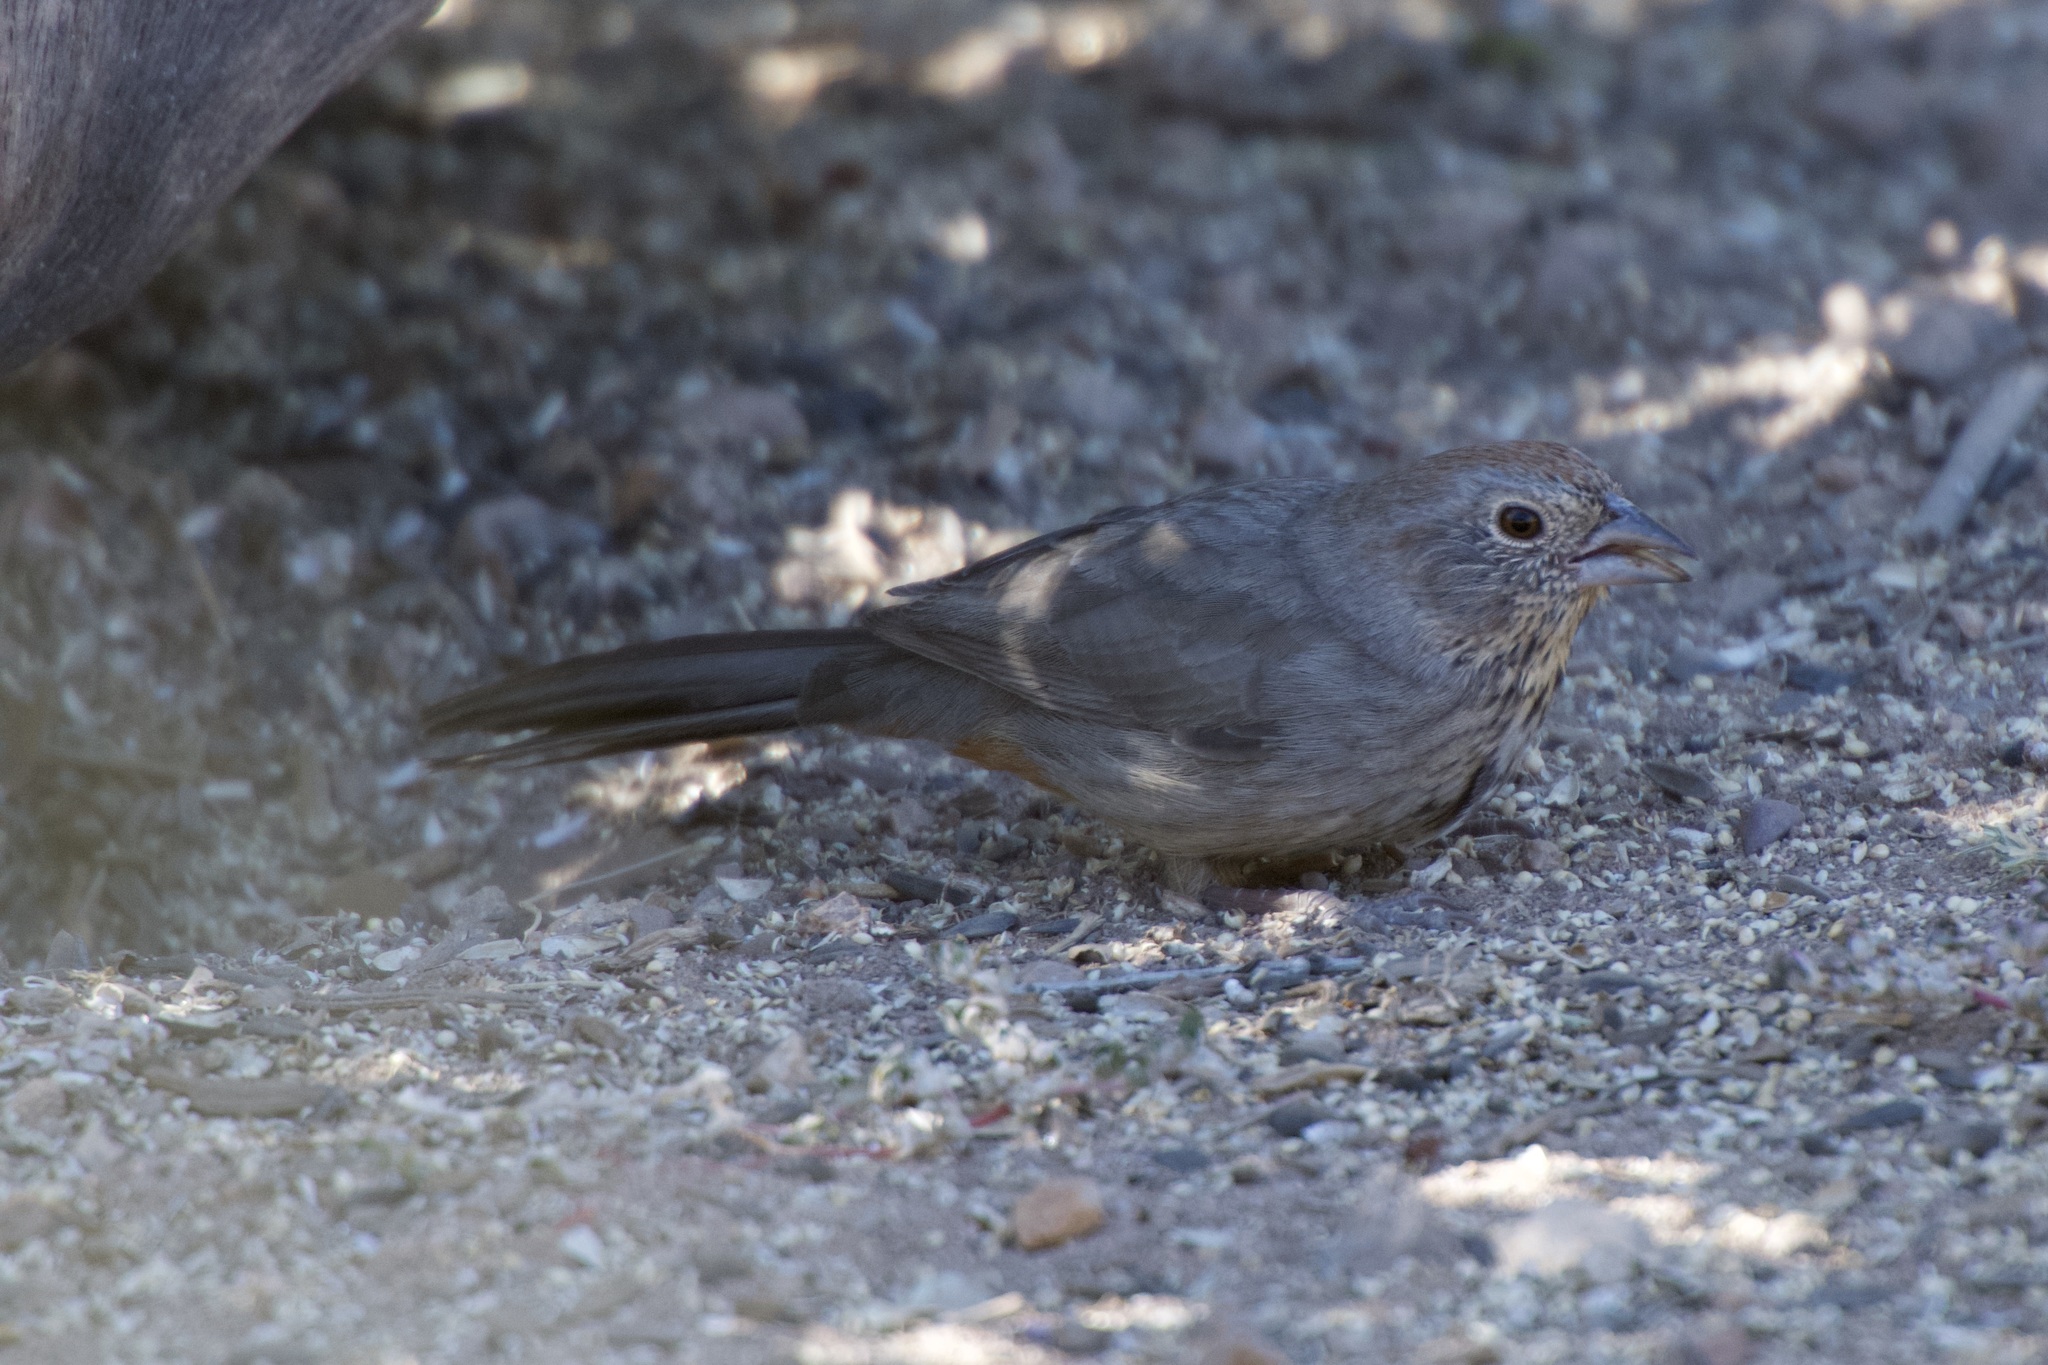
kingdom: Animalia
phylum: Chordata
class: Aves
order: Passeriformes
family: Passerellidae
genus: Melozone
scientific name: Melozone fusca
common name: Canyon towhee
